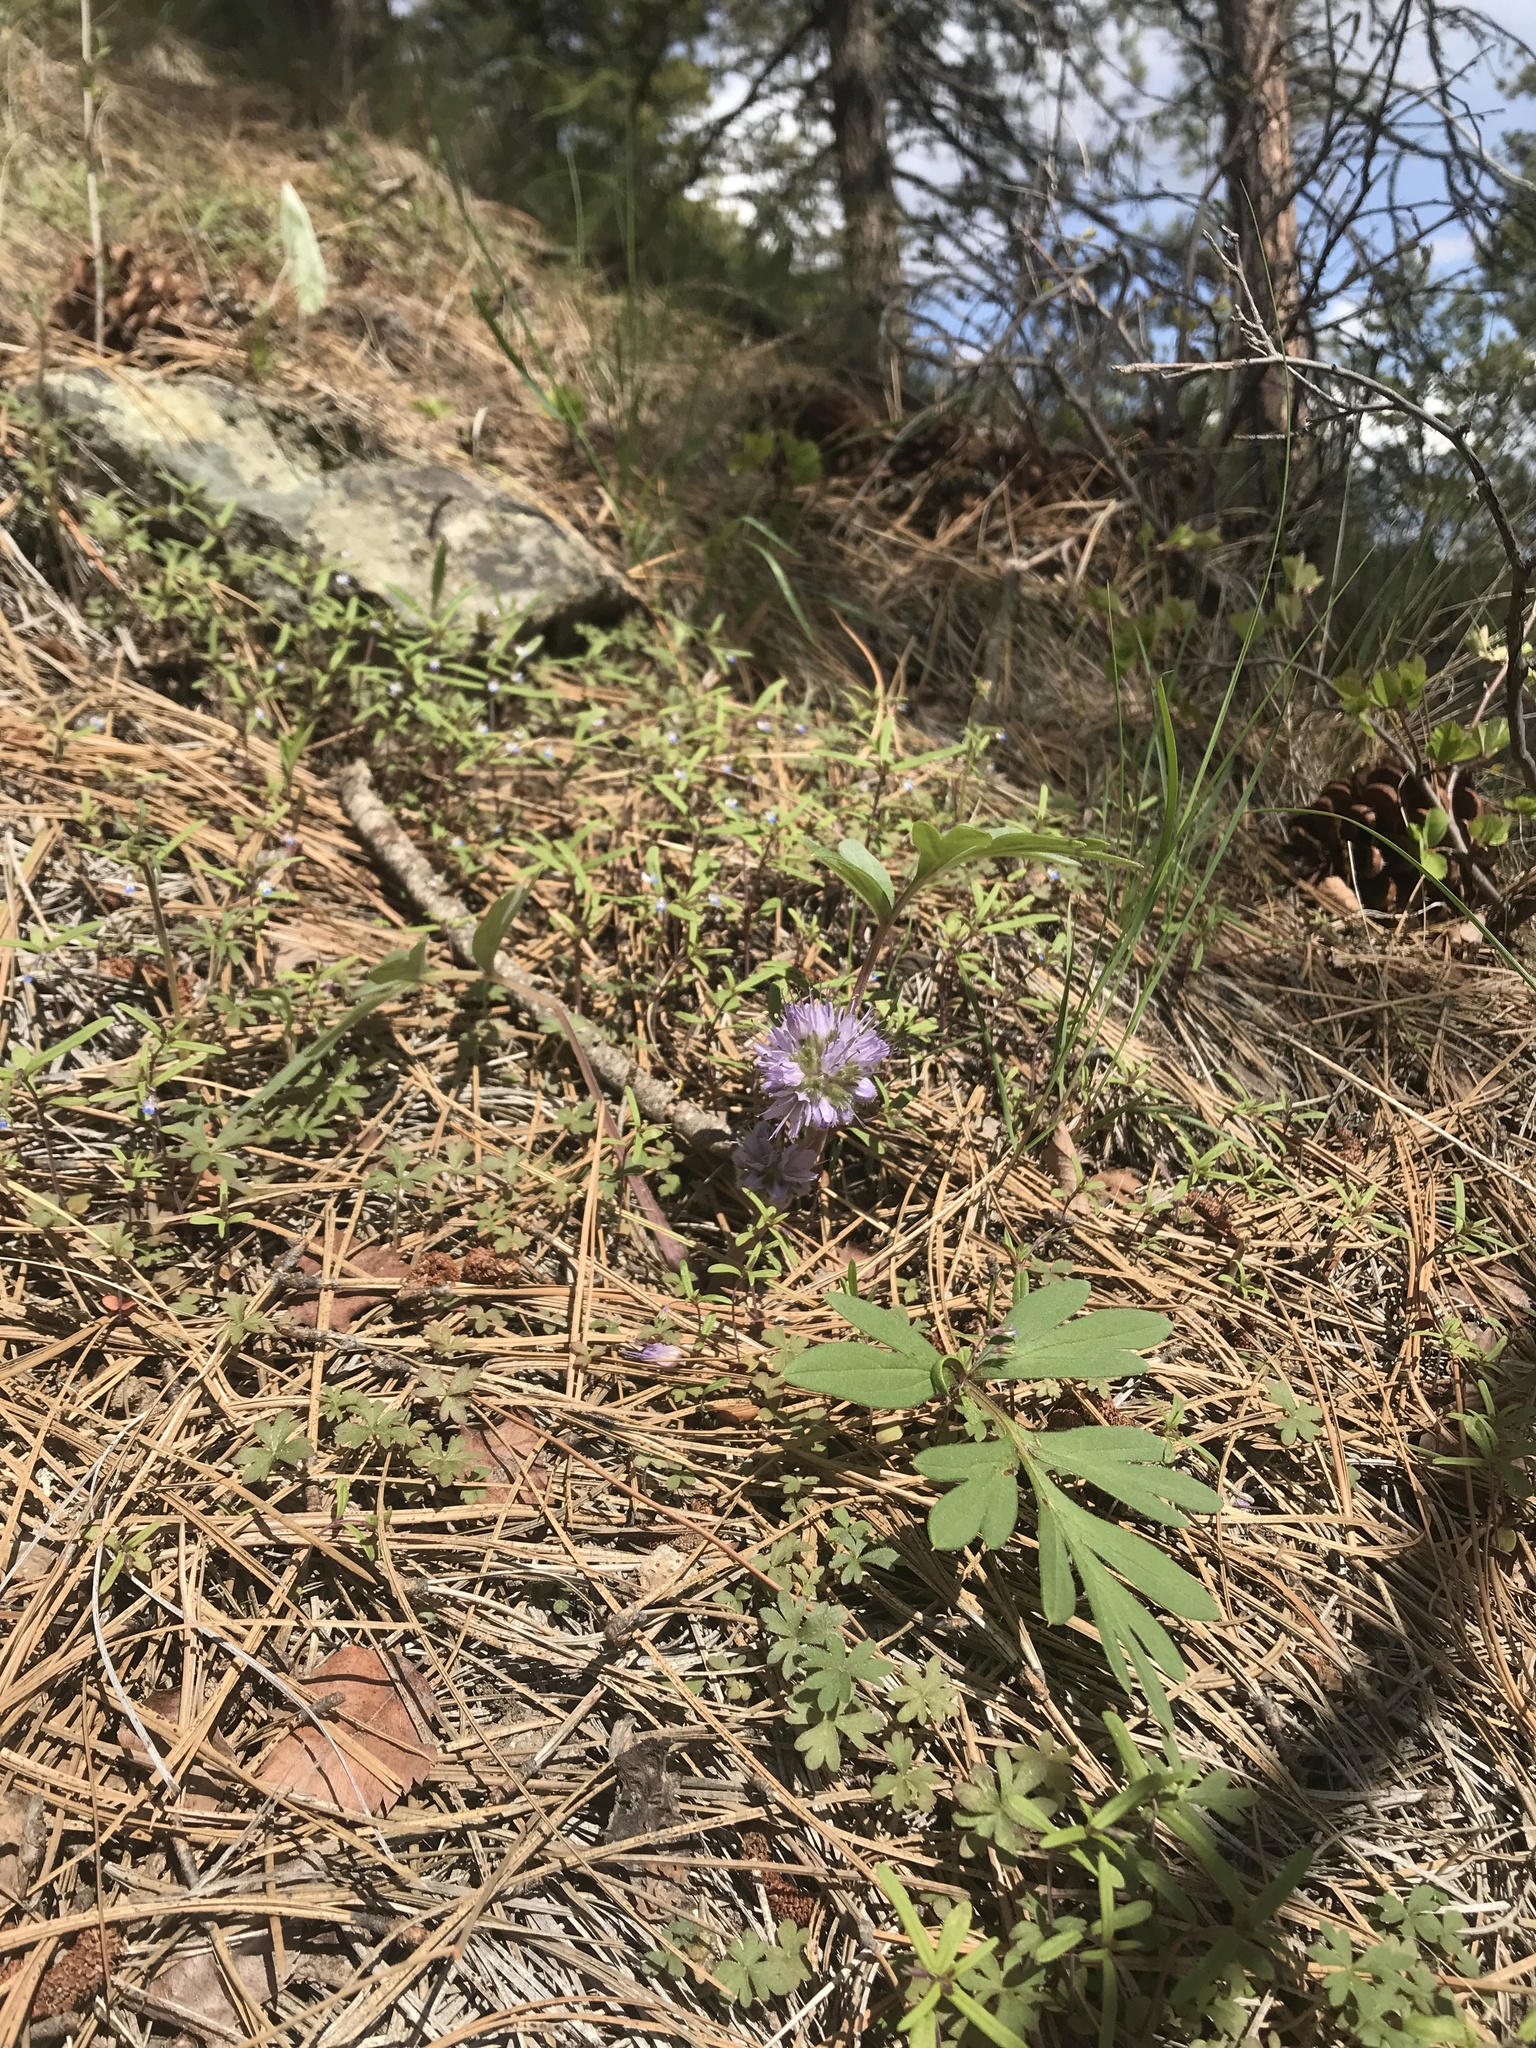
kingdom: Plantae
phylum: Tracheophyta
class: Magnoliopsida
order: Boraginales
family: Hydrophyllaceae
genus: Hydrophyllum
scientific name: Hydrophyllum capitatum
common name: Woollen-breeches
